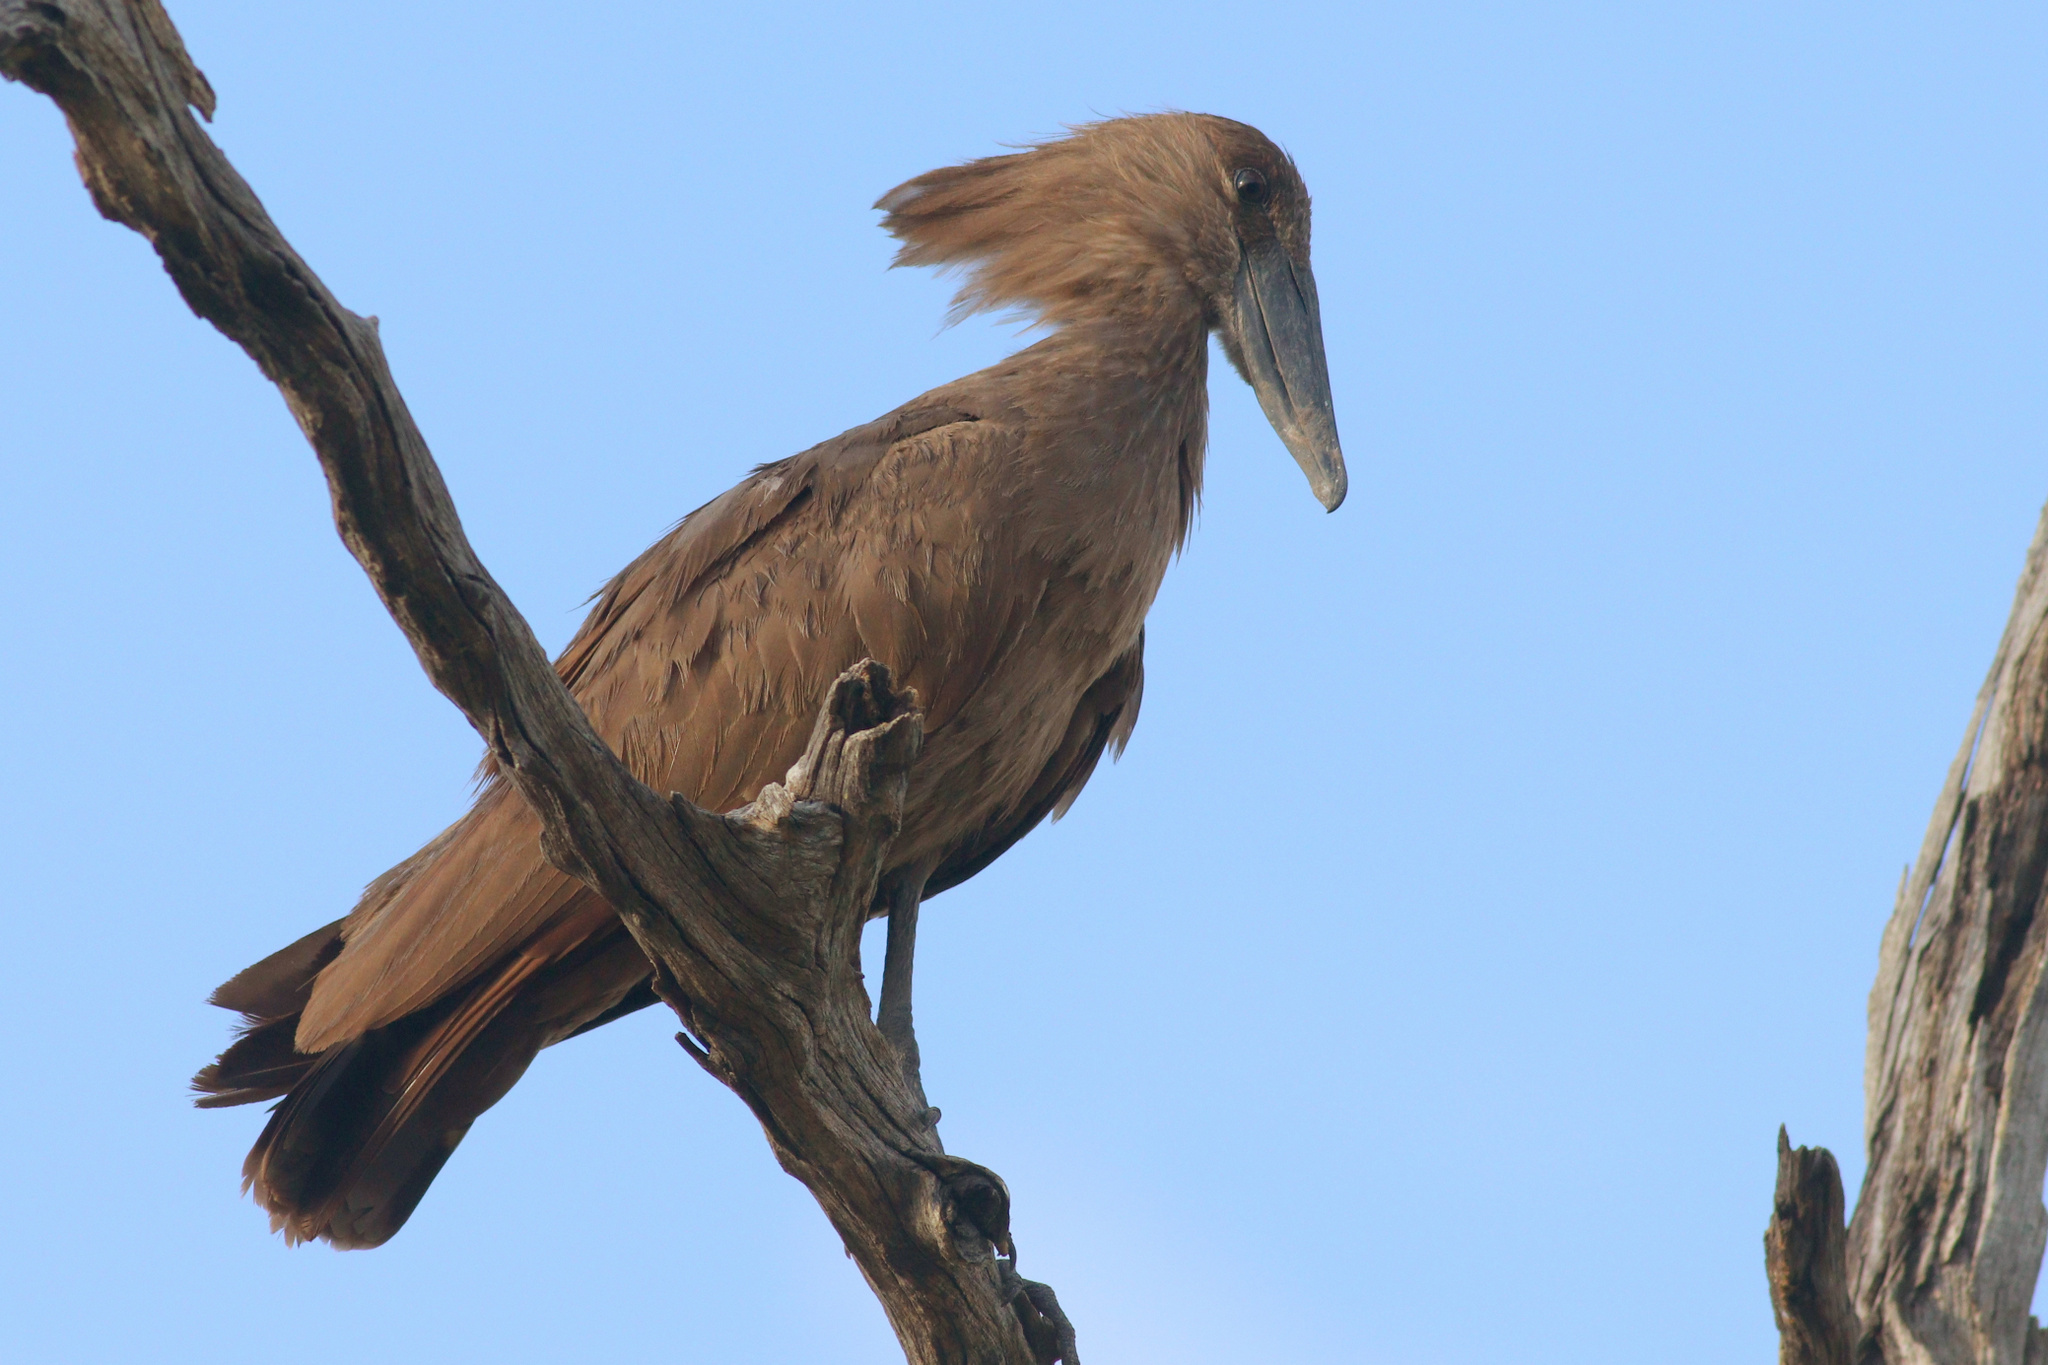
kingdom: Animalia
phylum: Chordata
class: Aves
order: Pelecaniformes
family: Scopidae
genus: Scopus
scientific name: Scopus umbretta
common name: Hamerkop
